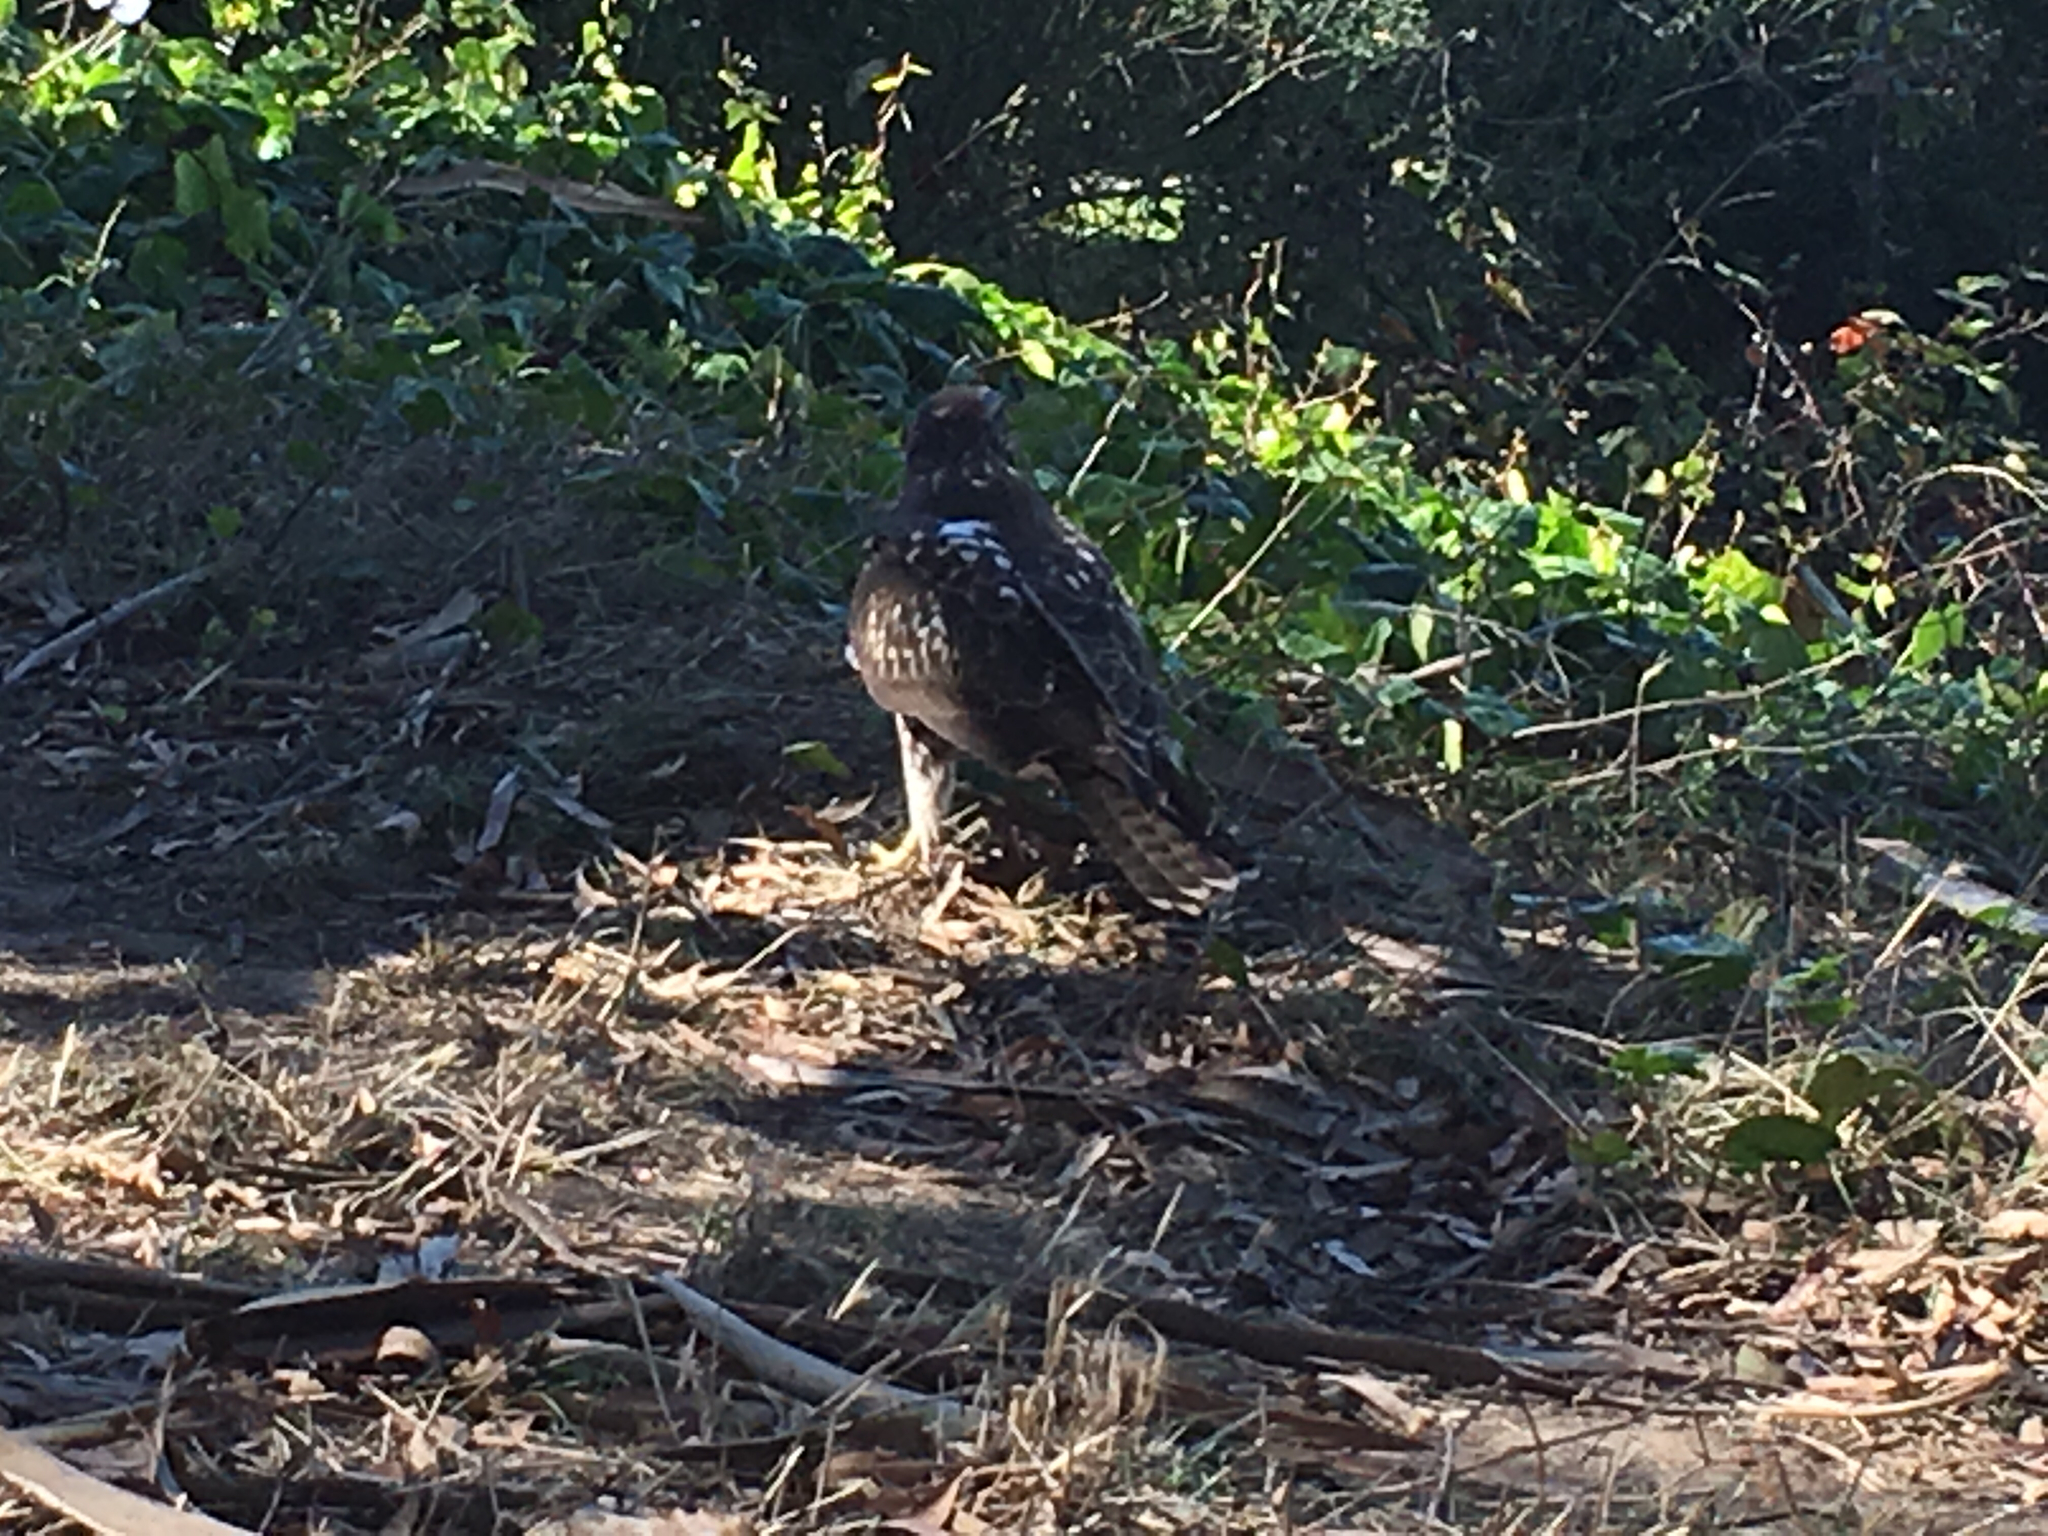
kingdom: Animalia
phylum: Chordata
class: Aves
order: Accipitriformes
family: Accipitridae
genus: Buteo
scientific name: Buteo jamaicensis
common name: Red-tailed hawk
